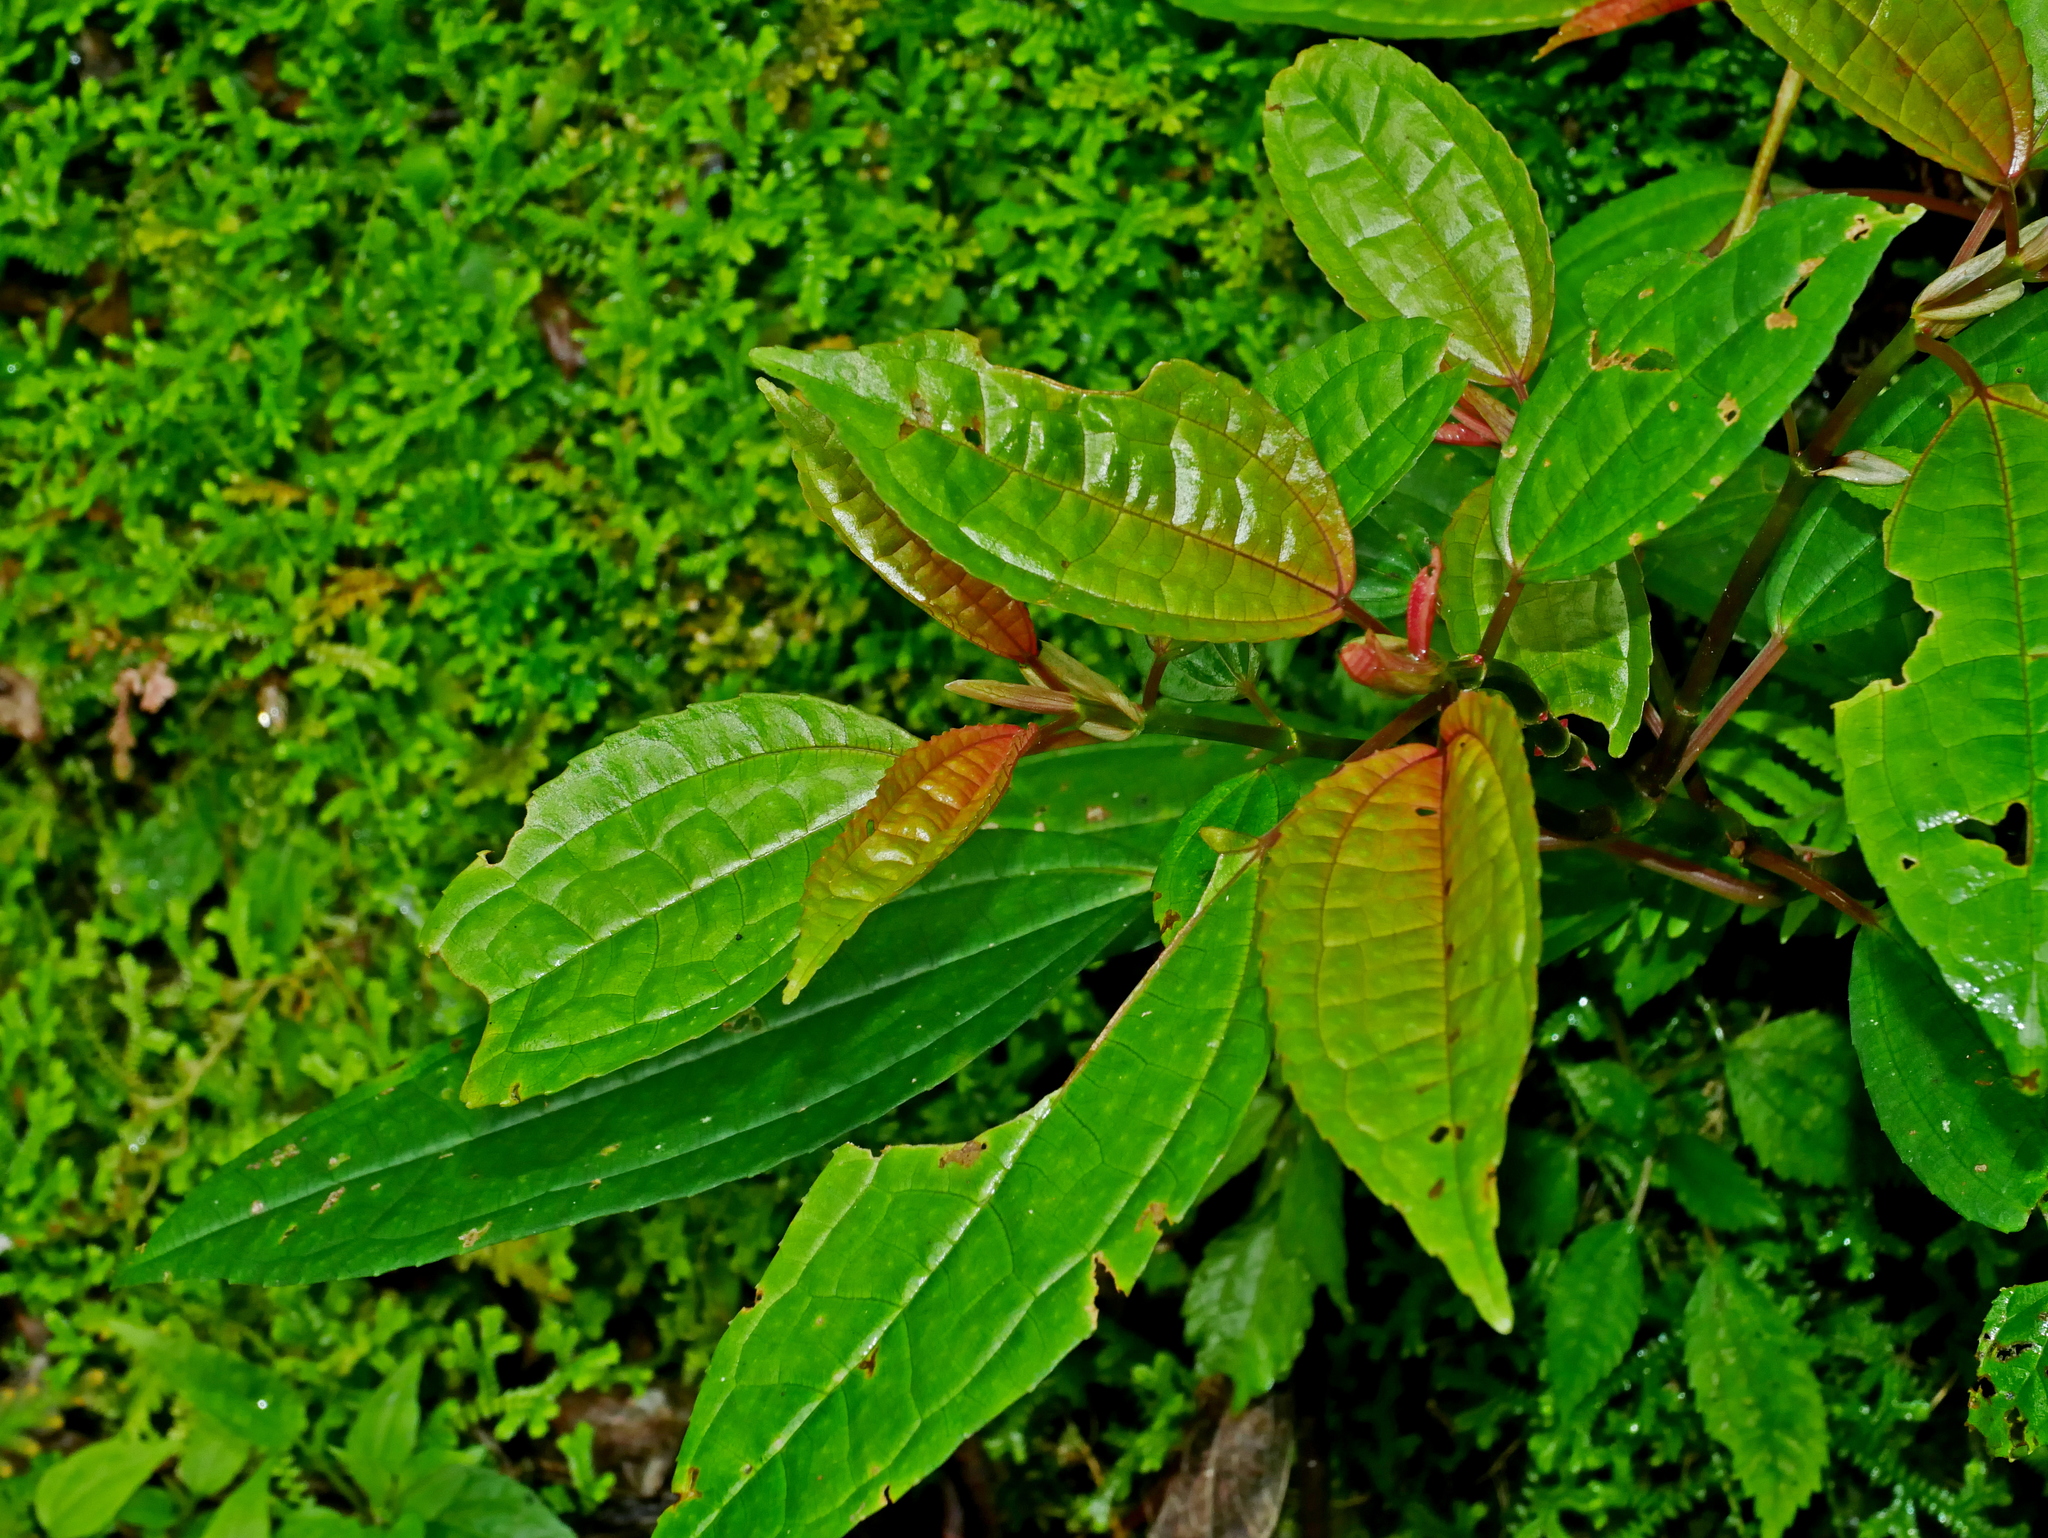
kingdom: Plantae
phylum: Tracheophyta
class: Magnoliopsida
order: Rosales
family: Urticaceae
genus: Pilea
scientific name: Pilea funkikensis
